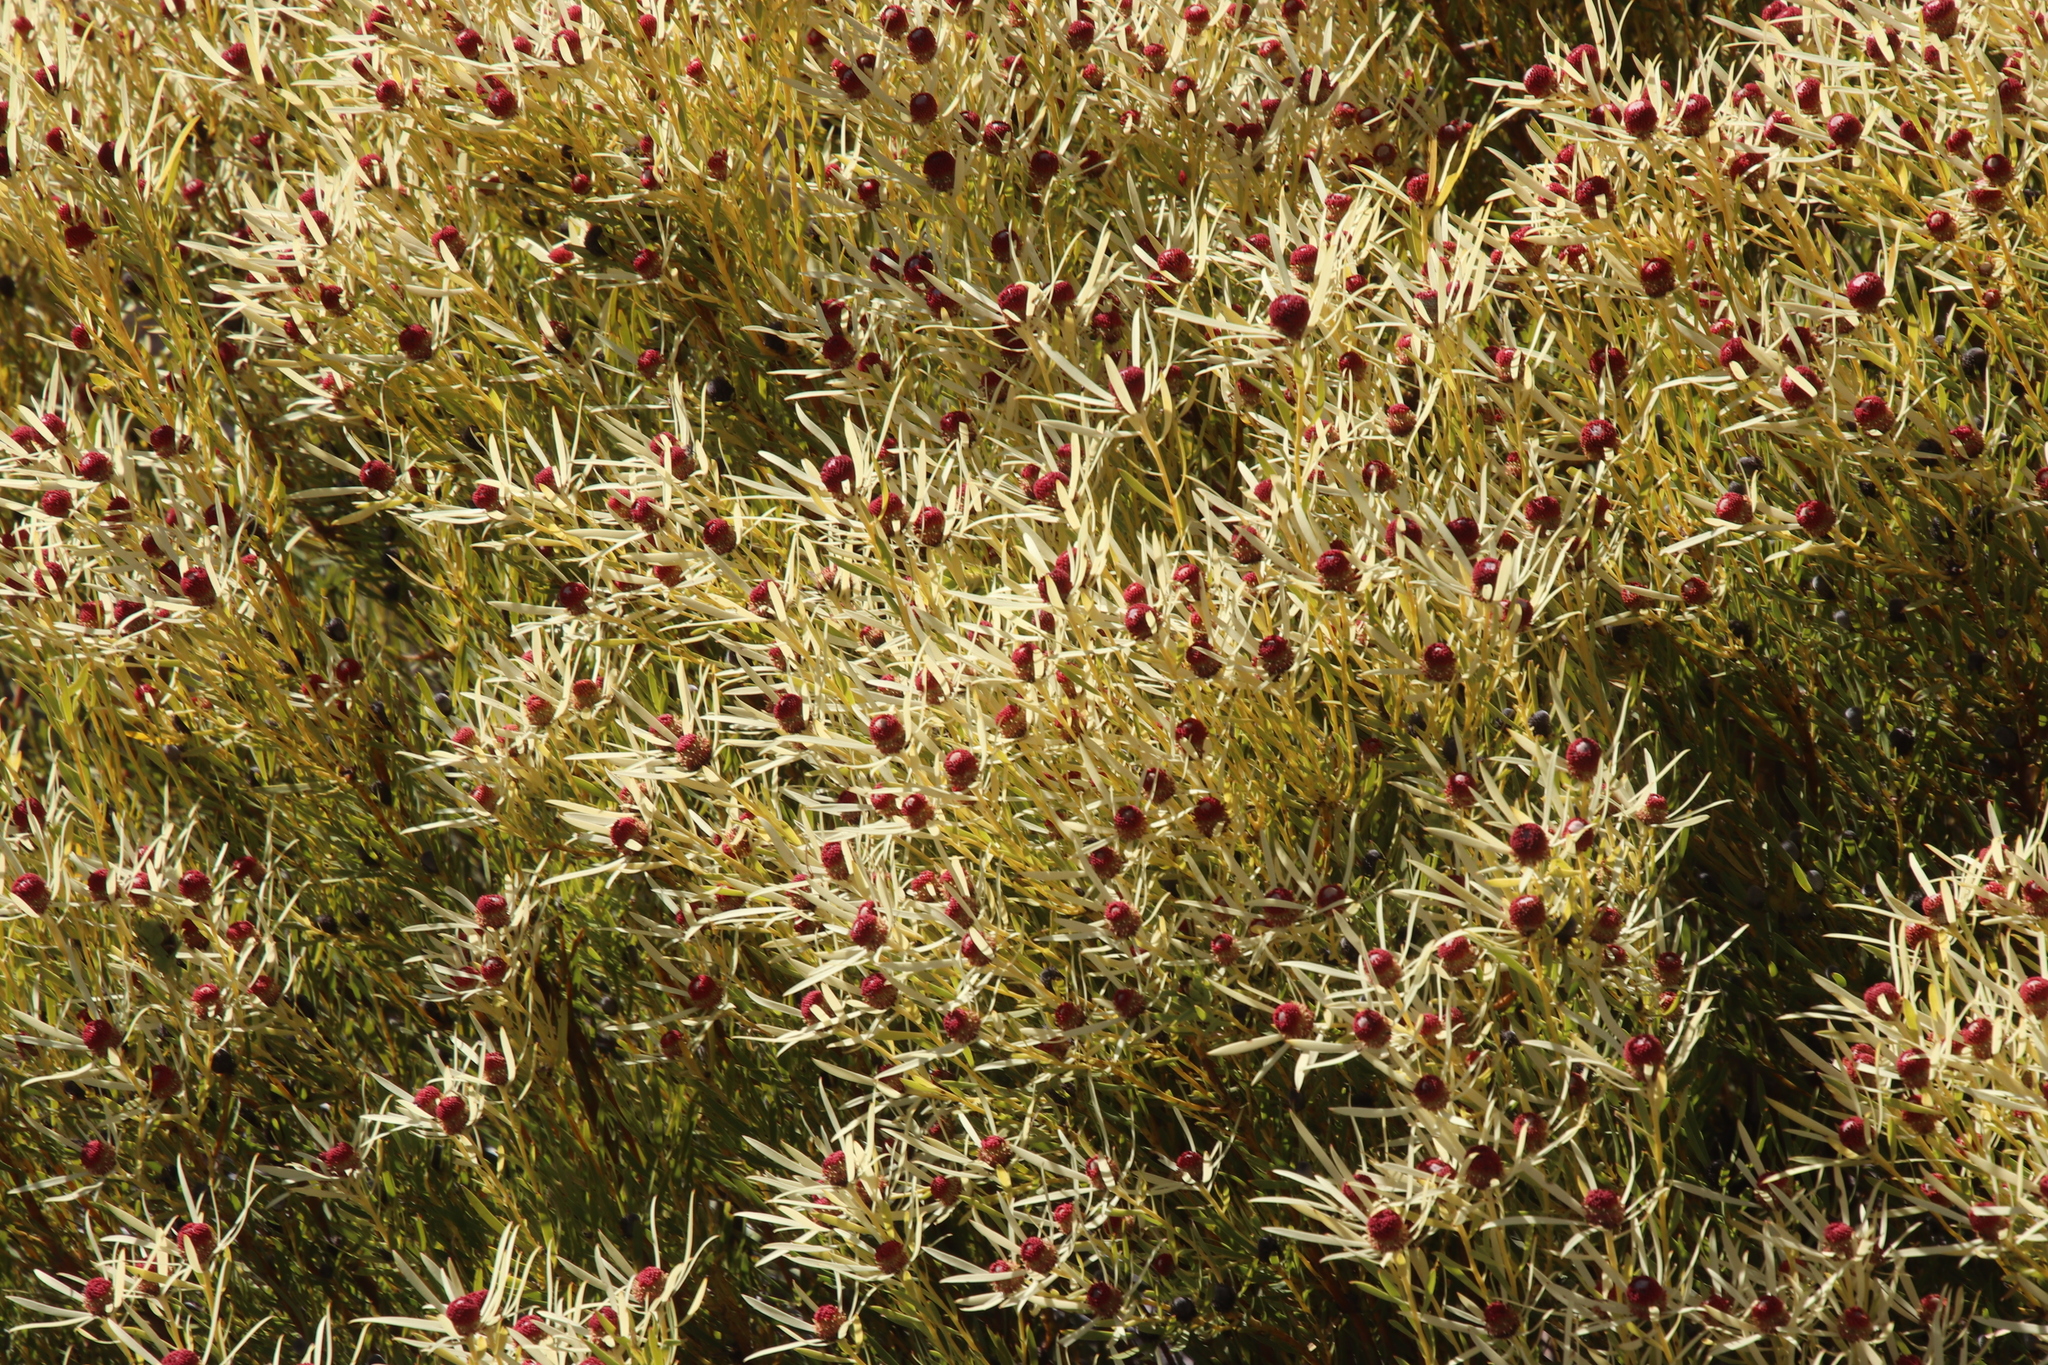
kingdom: Plantae
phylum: Tracheophyta
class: Magnoliopsida
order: Proteales
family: Proteaceae
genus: Leucadendron
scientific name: Leucadendron salignum
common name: Common sunshine conebush
